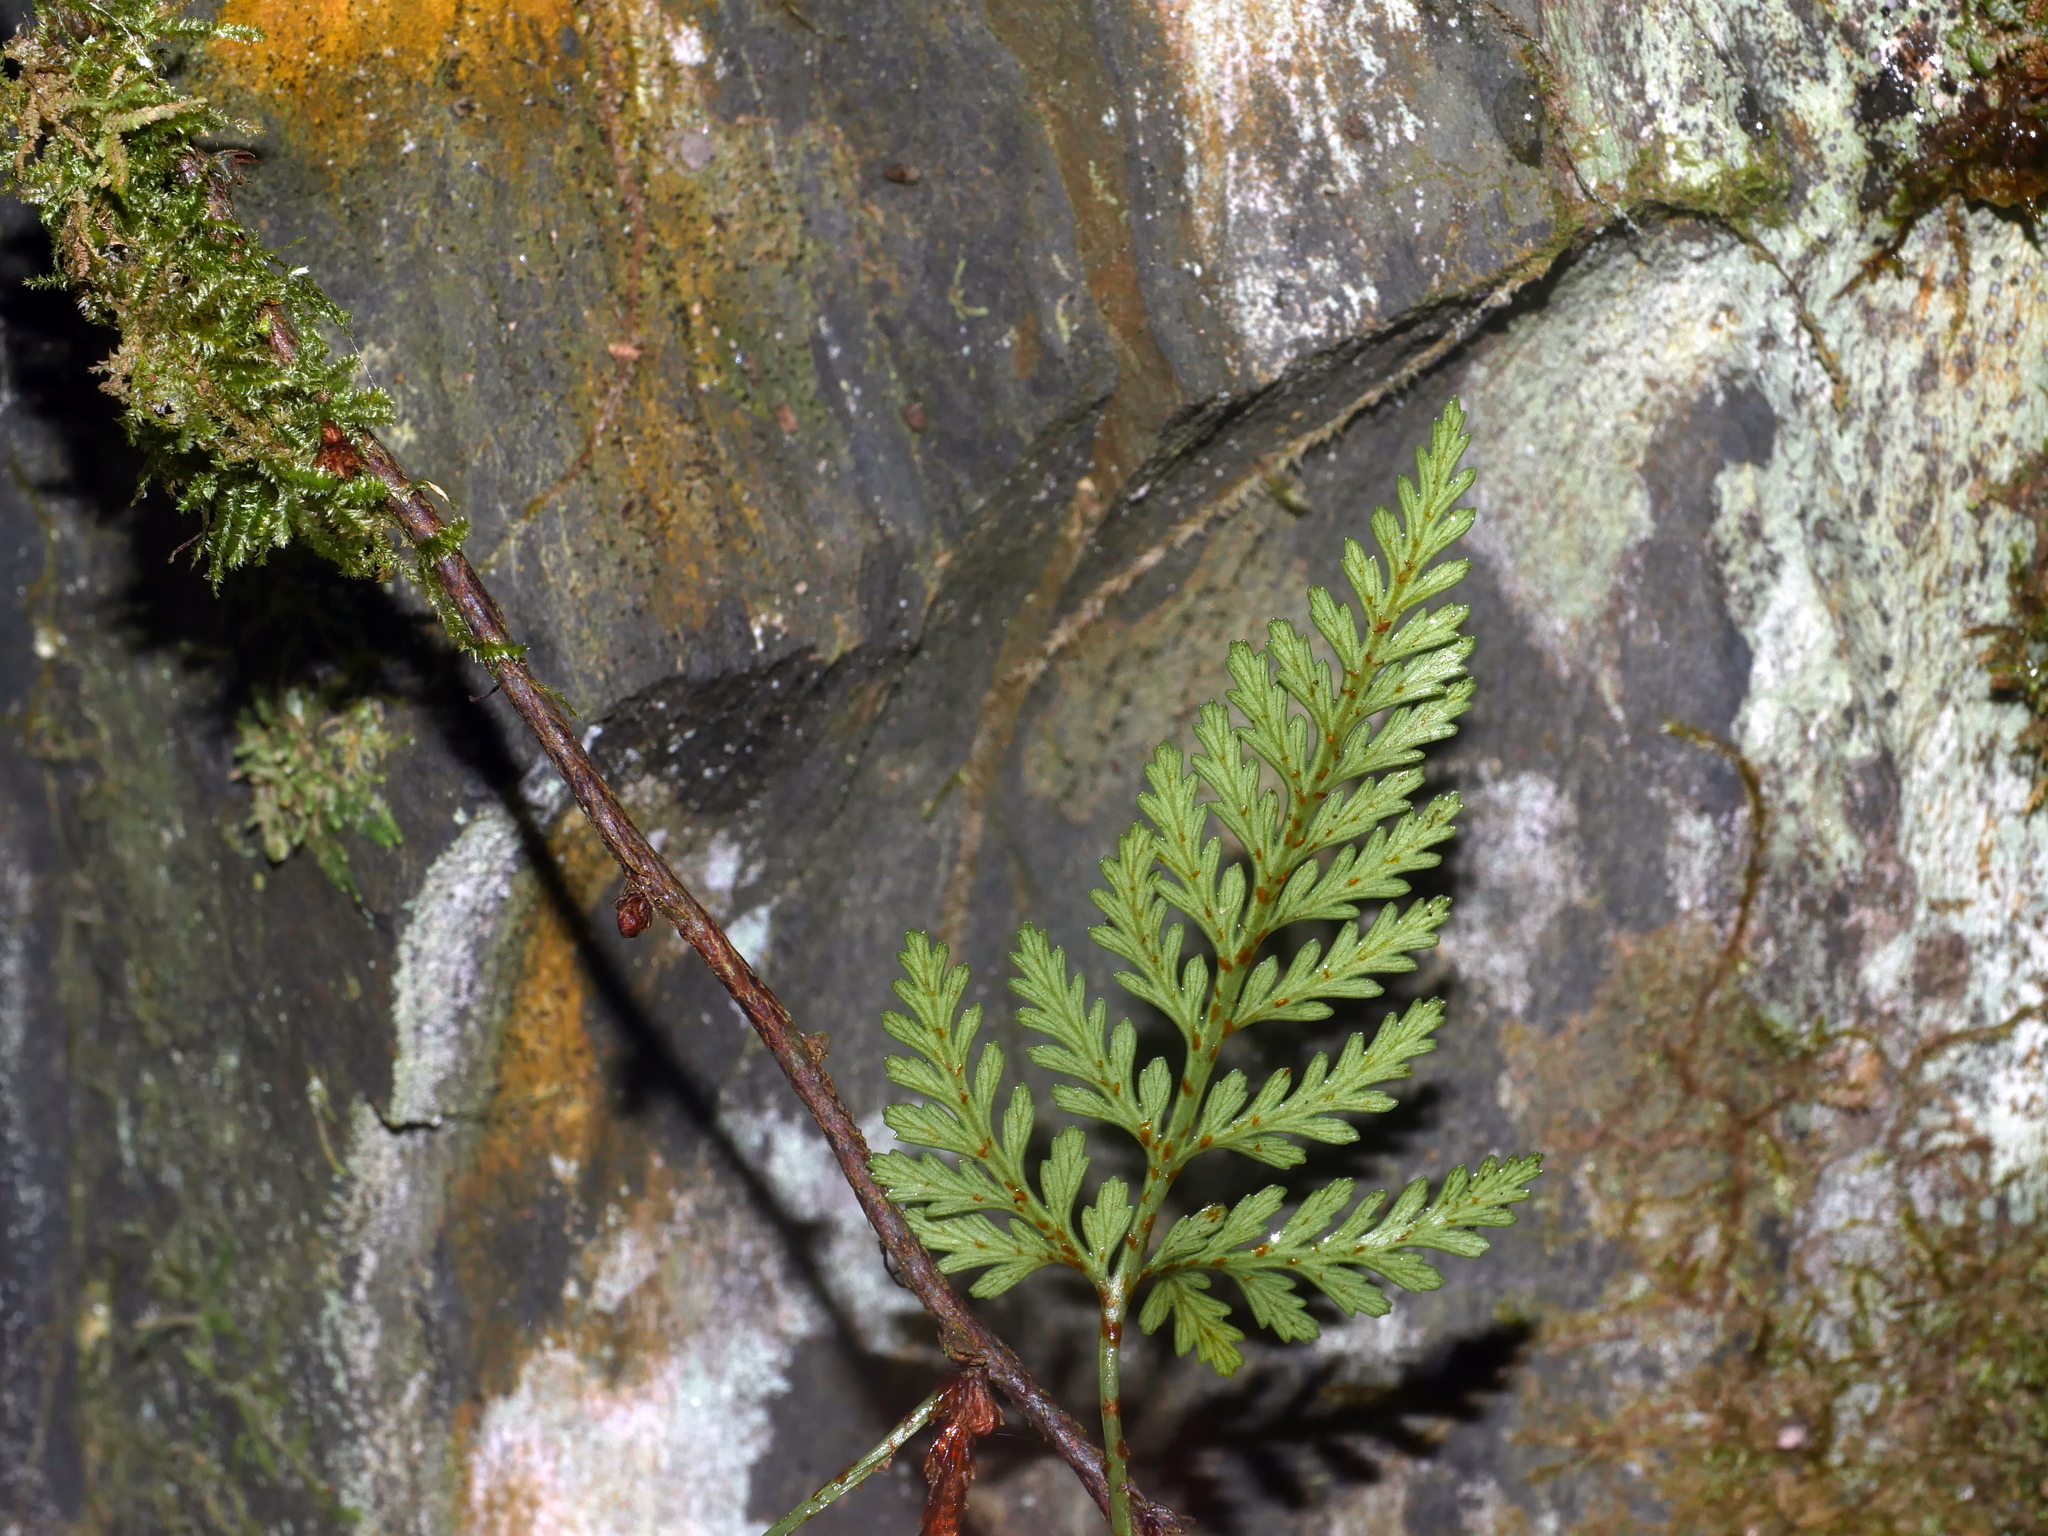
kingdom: Plantae
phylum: Tracheophyta
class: Polypodiopsida
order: Polypodiales
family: Davalliaceae
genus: Davallia
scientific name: Davallia chrysanthemifolia
